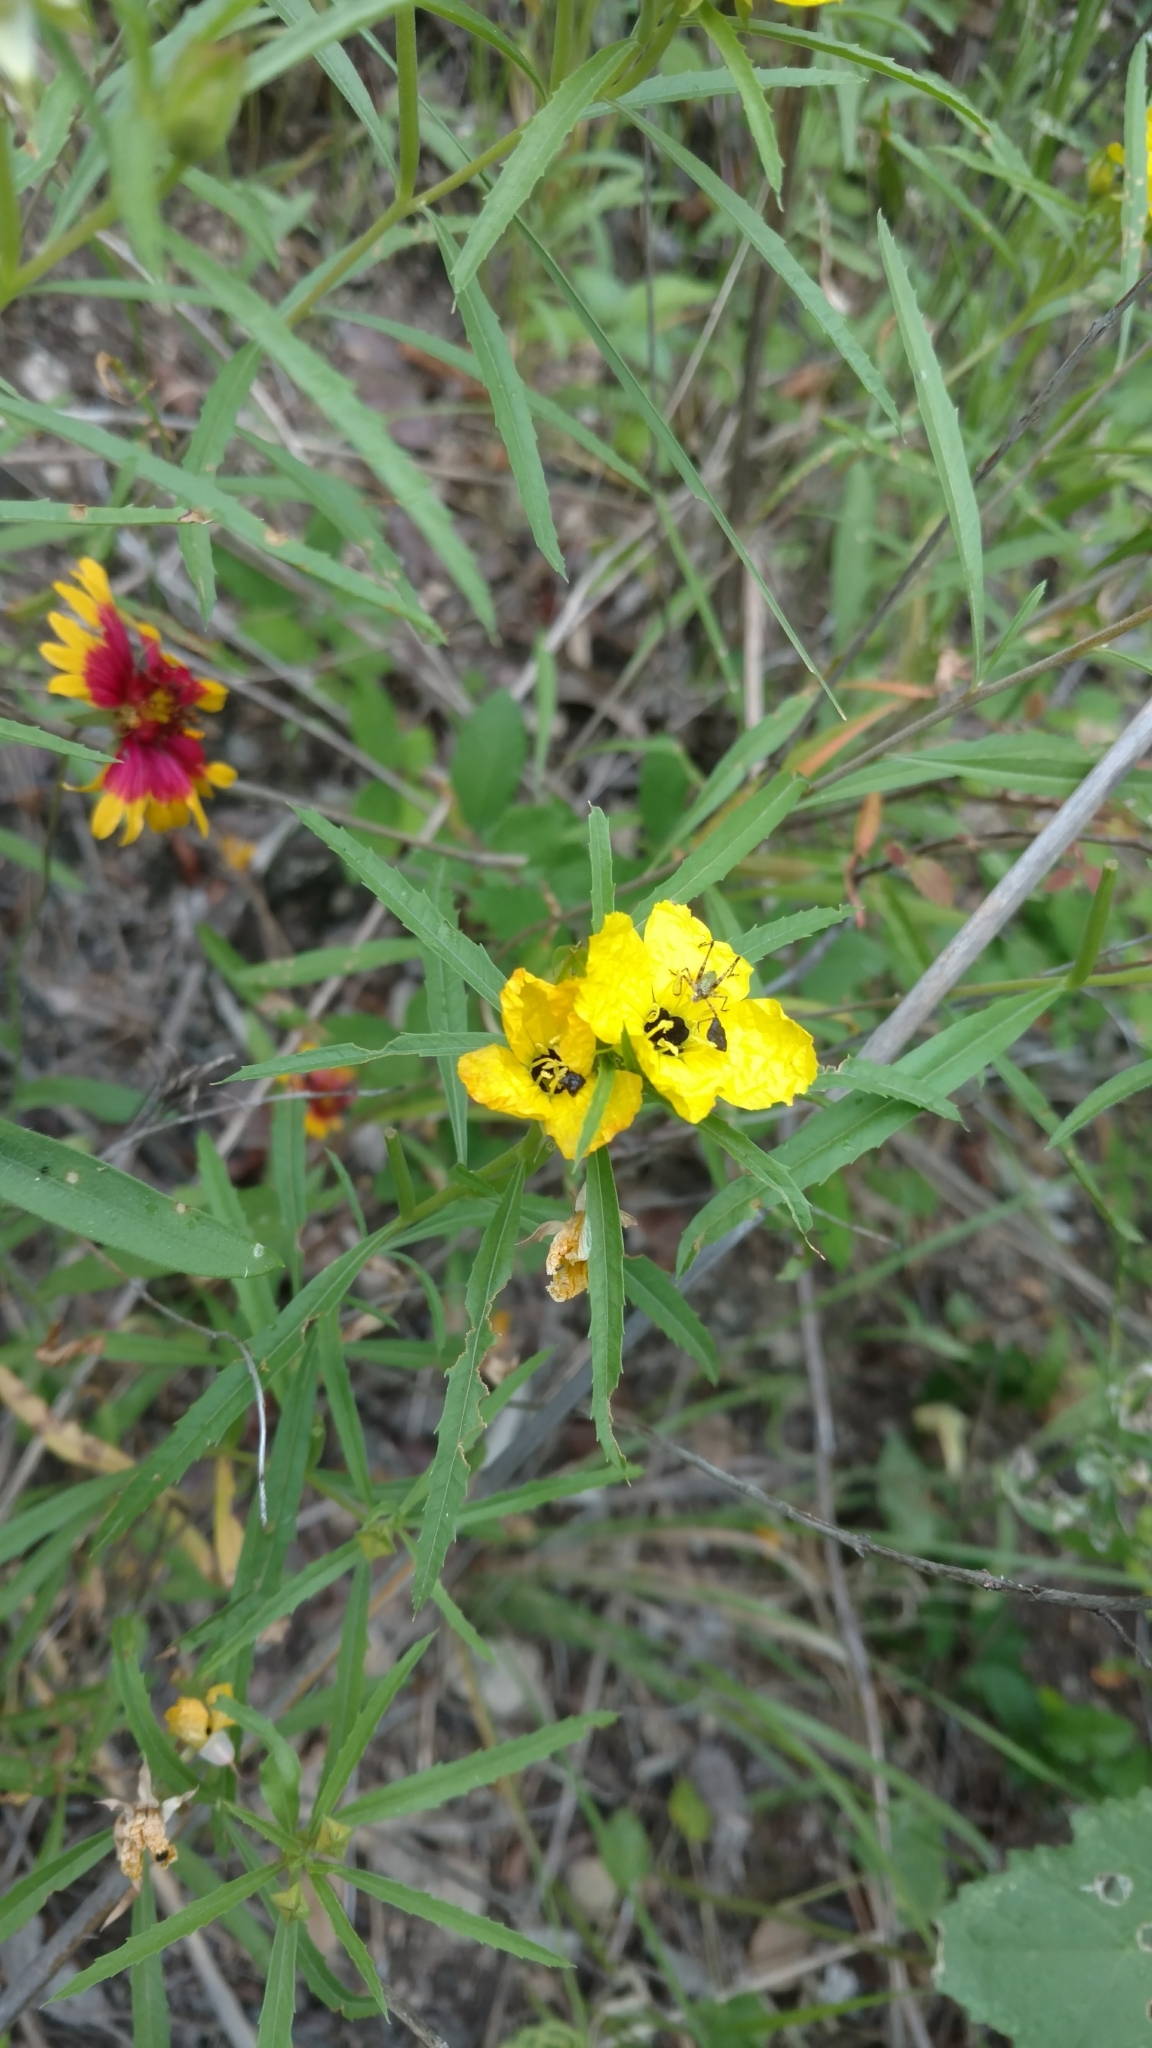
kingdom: Plantae
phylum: Tracheophyta
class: Magnoliopsida
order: Myrtales
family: Onagraceae
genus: Oenothera
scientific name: Oenothera
